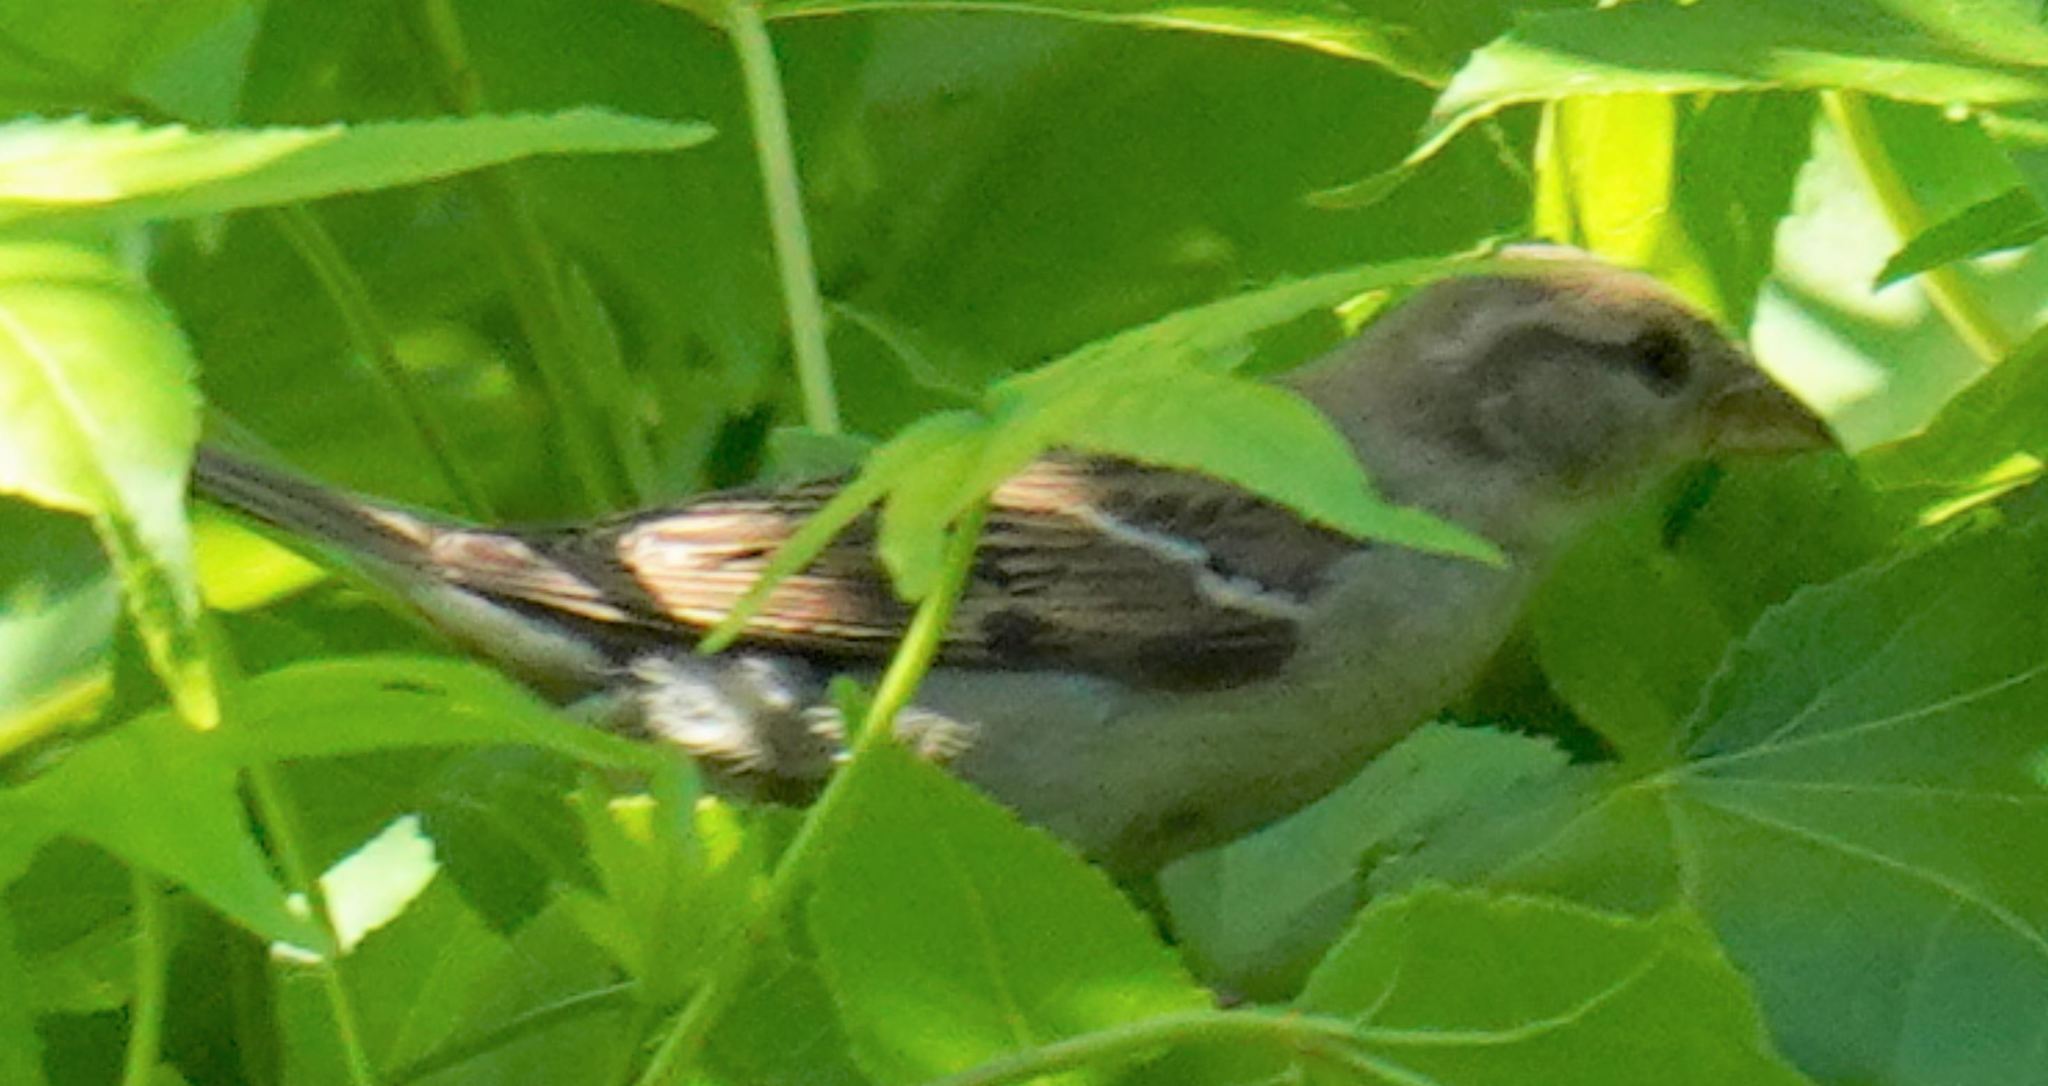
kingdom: Animalia
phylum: Chordata
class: Aves
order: Passeriformes
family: Passeridae
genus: Passer
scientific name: Passer domesticus
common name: House sparrow
